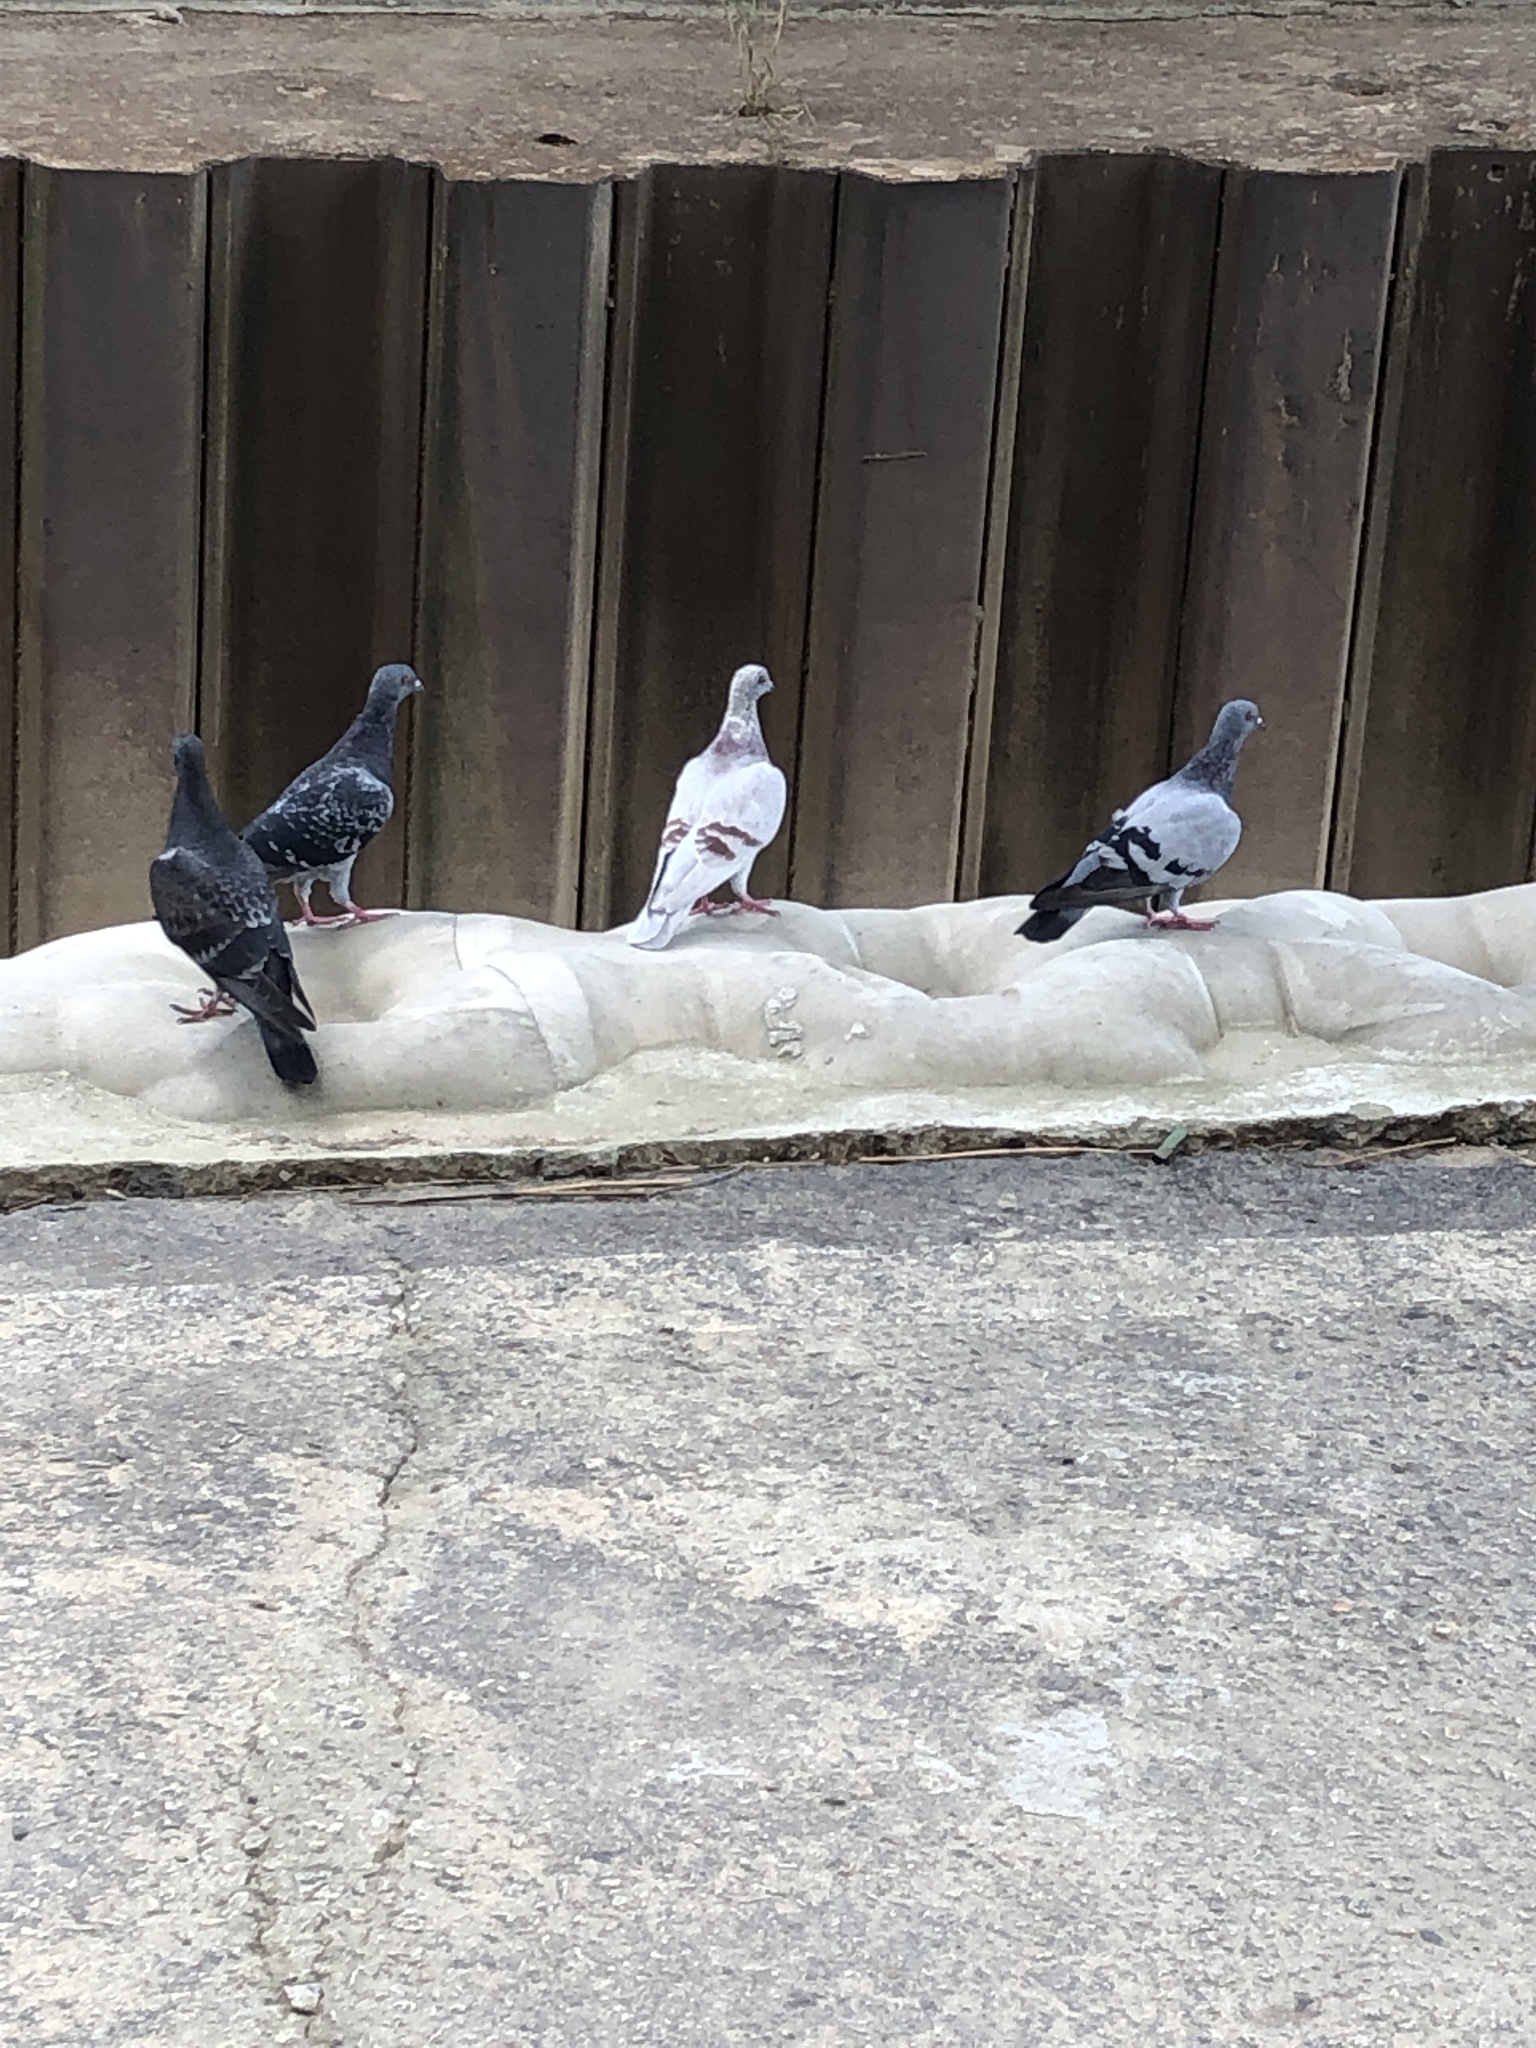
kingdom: Animalia
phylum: Chordata
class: Aves
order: Columbiformes
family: Columbidae
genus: Columba
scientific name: Columba livia
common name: Rock pigeon
